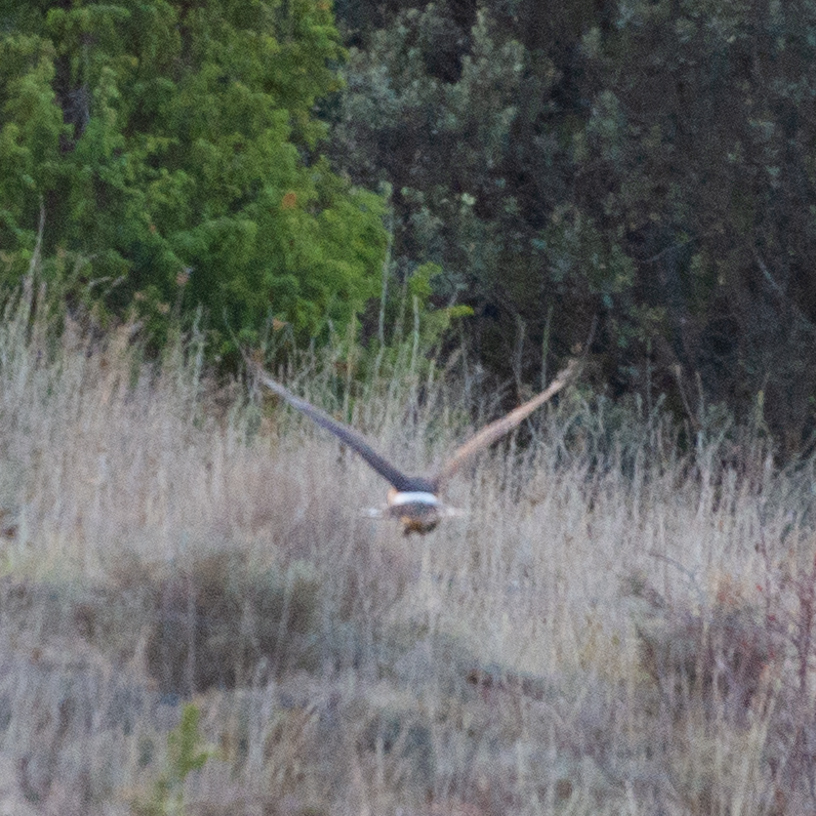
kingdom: Animalia
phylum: Chordata
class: Aves
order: Accipitriformes
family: Accipitridae
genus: Circus
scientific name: Circus cyaneus
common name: Hen harrier
